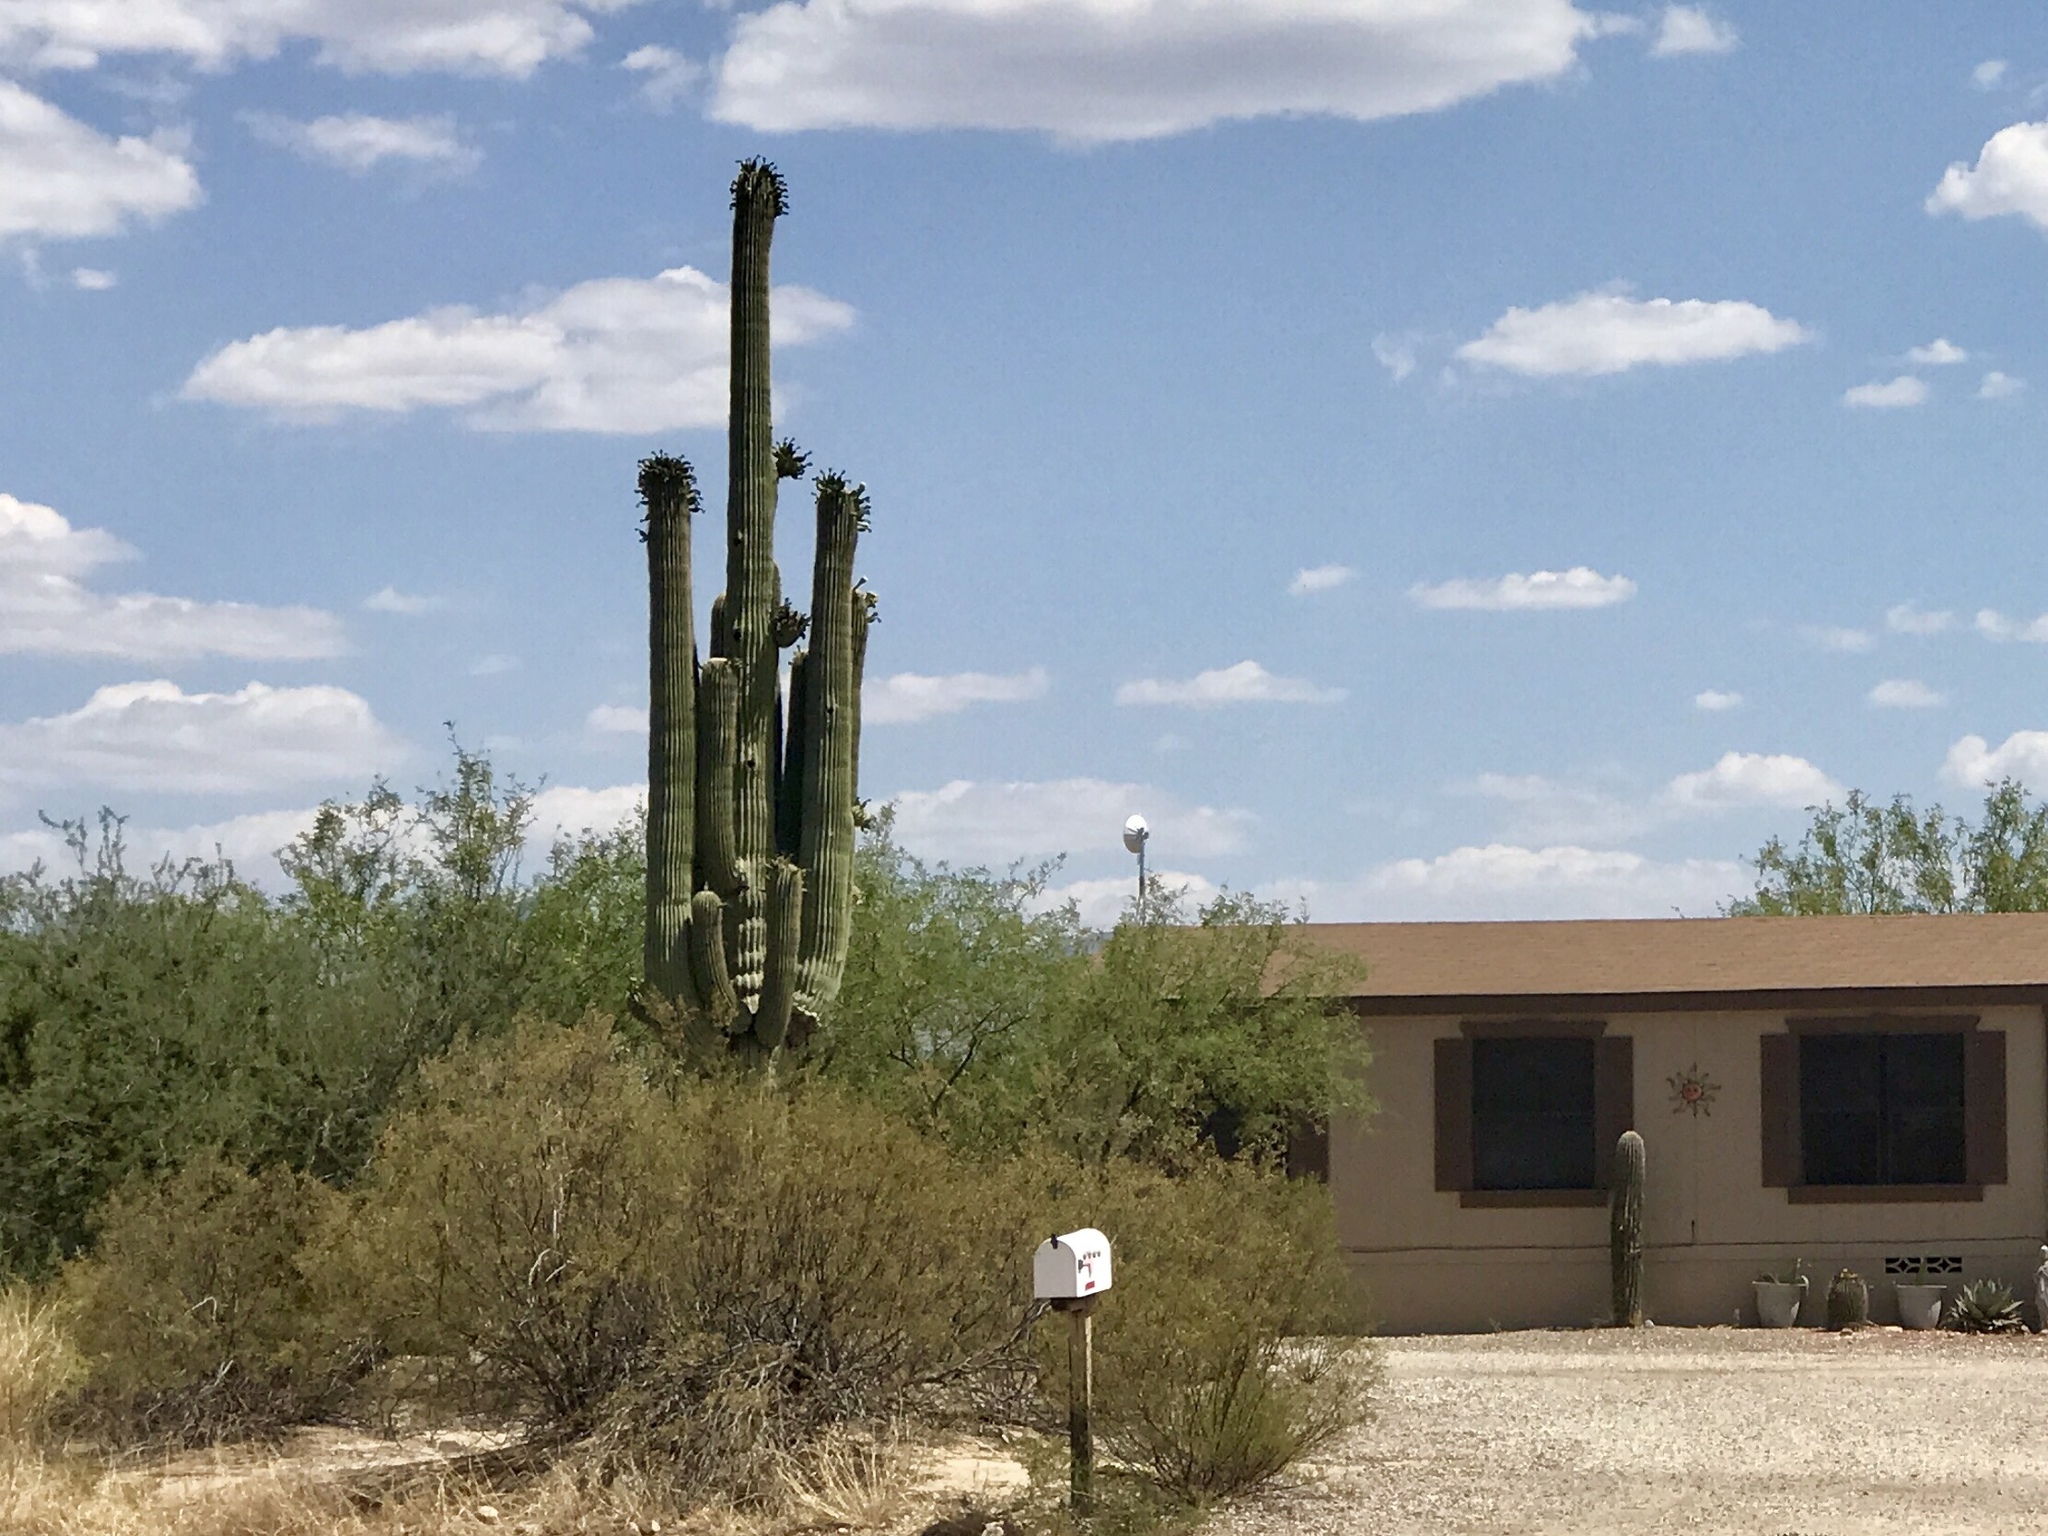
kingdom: Plantae
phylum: Tracheophyta
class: Magnoliopsida
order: Caryophyllales
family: Cactaceae
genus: Carnegiea
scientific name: Carnegiea gigantea
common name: Saguaro
